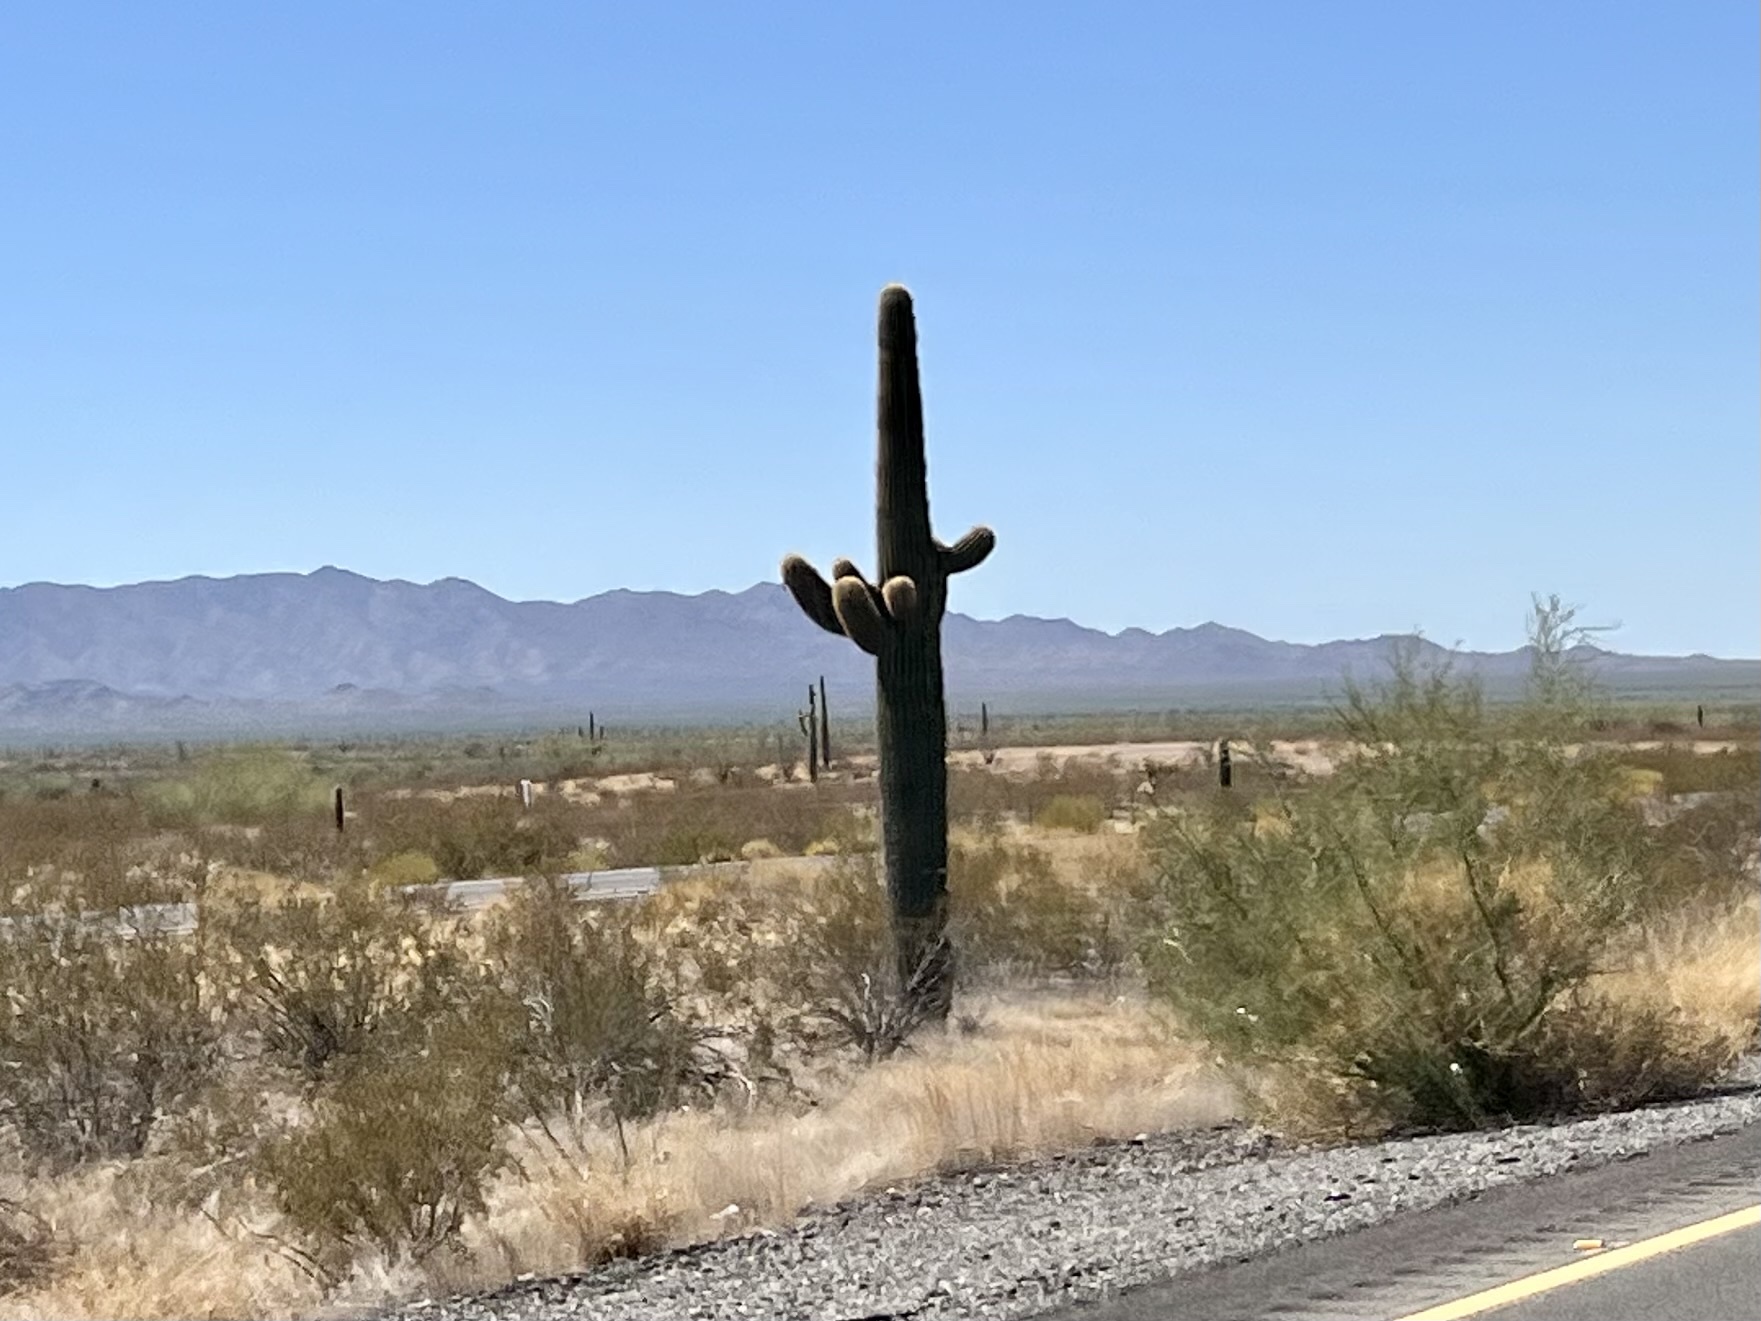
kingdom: Plantae
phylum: Tracheophyta
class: Magnoliopsida
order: Caryophyllales
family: Cactaceae
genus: Carnegiea
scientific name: Carnegiea gigantea
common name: Saguaro
